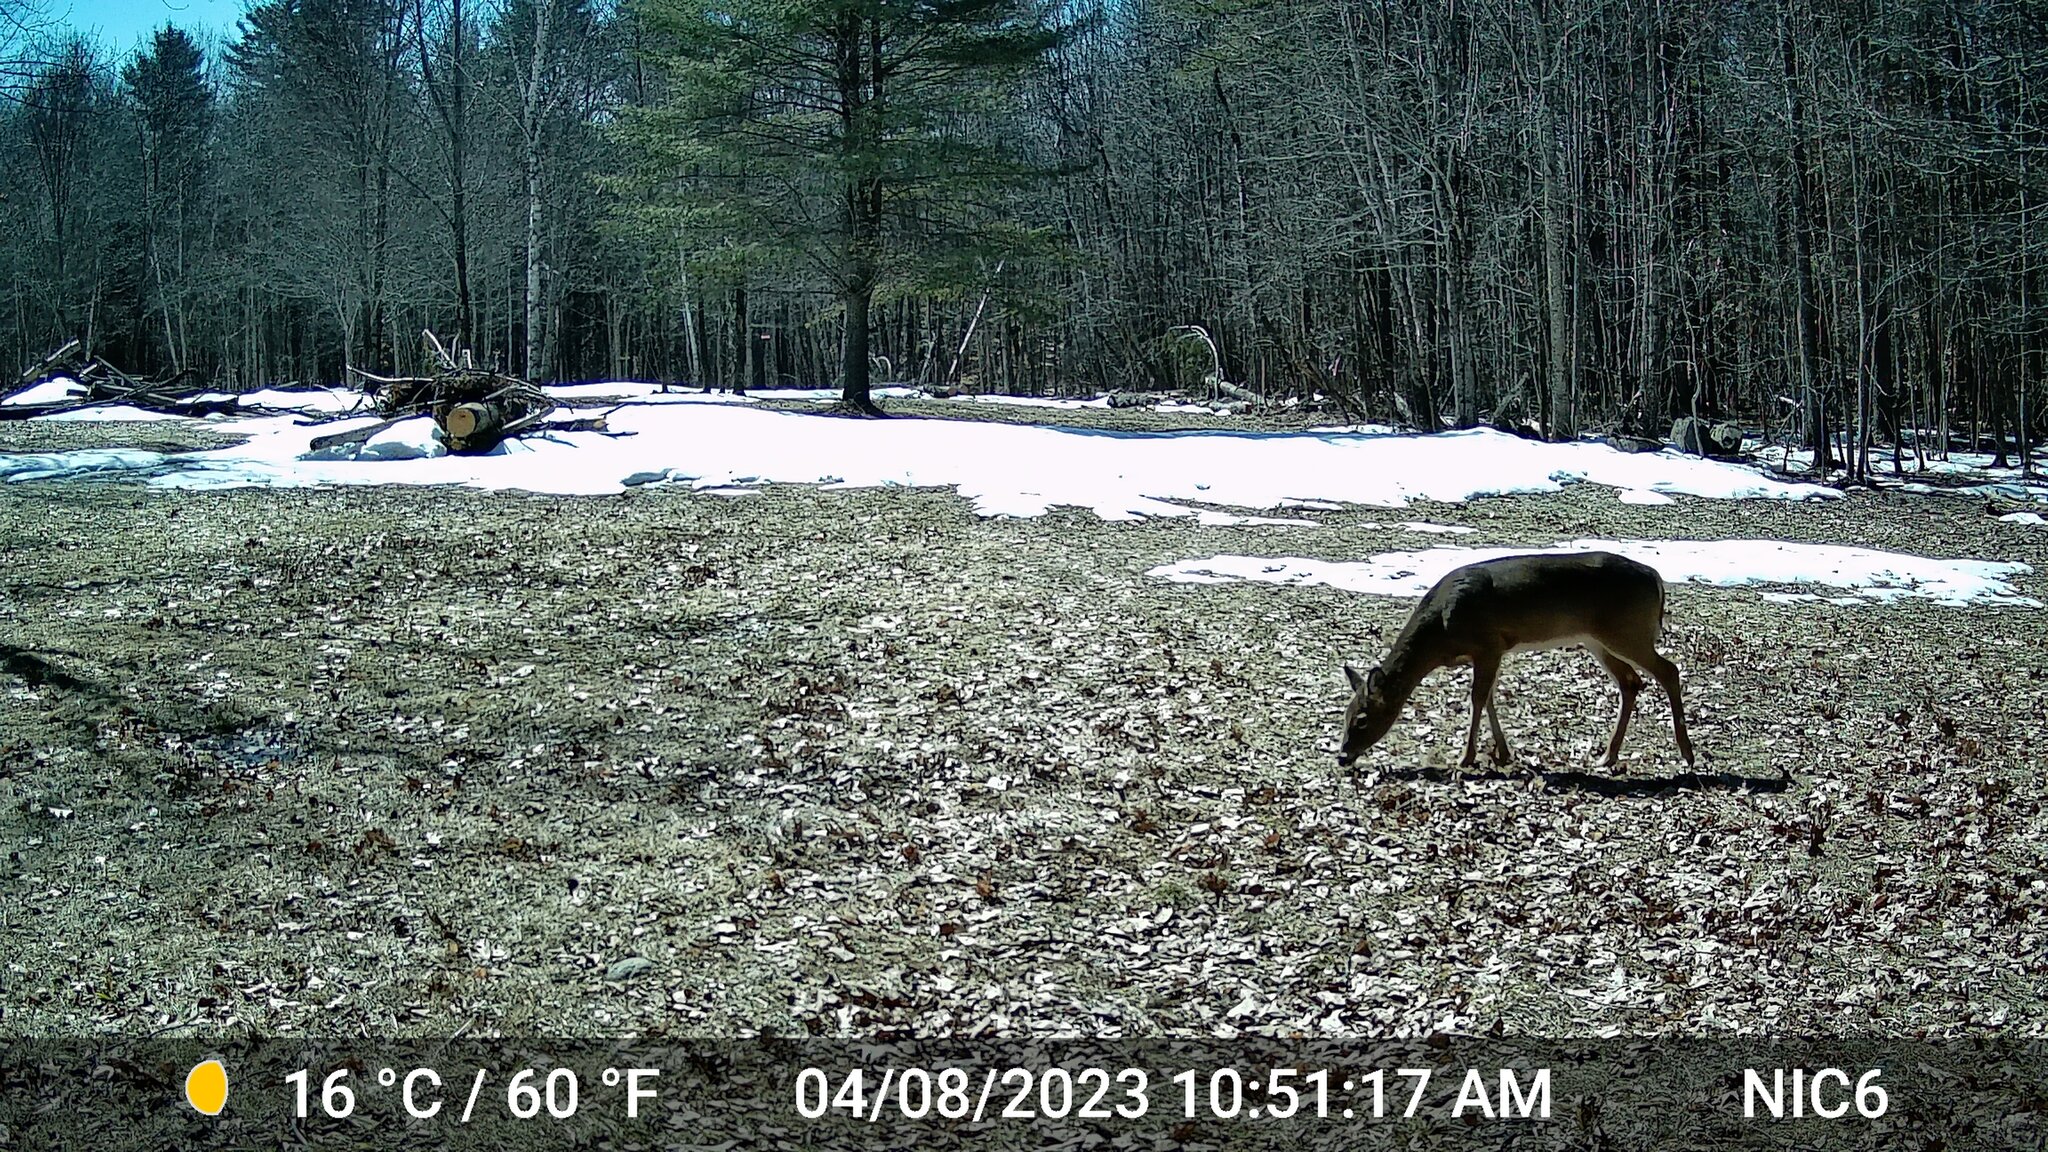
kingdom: Animalia
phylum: Chordata
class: Mammalia
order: Artiodactyla
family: Cervidae
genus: Odocoileus
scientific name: Odocoileus virginianus
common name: White-tailed deer
